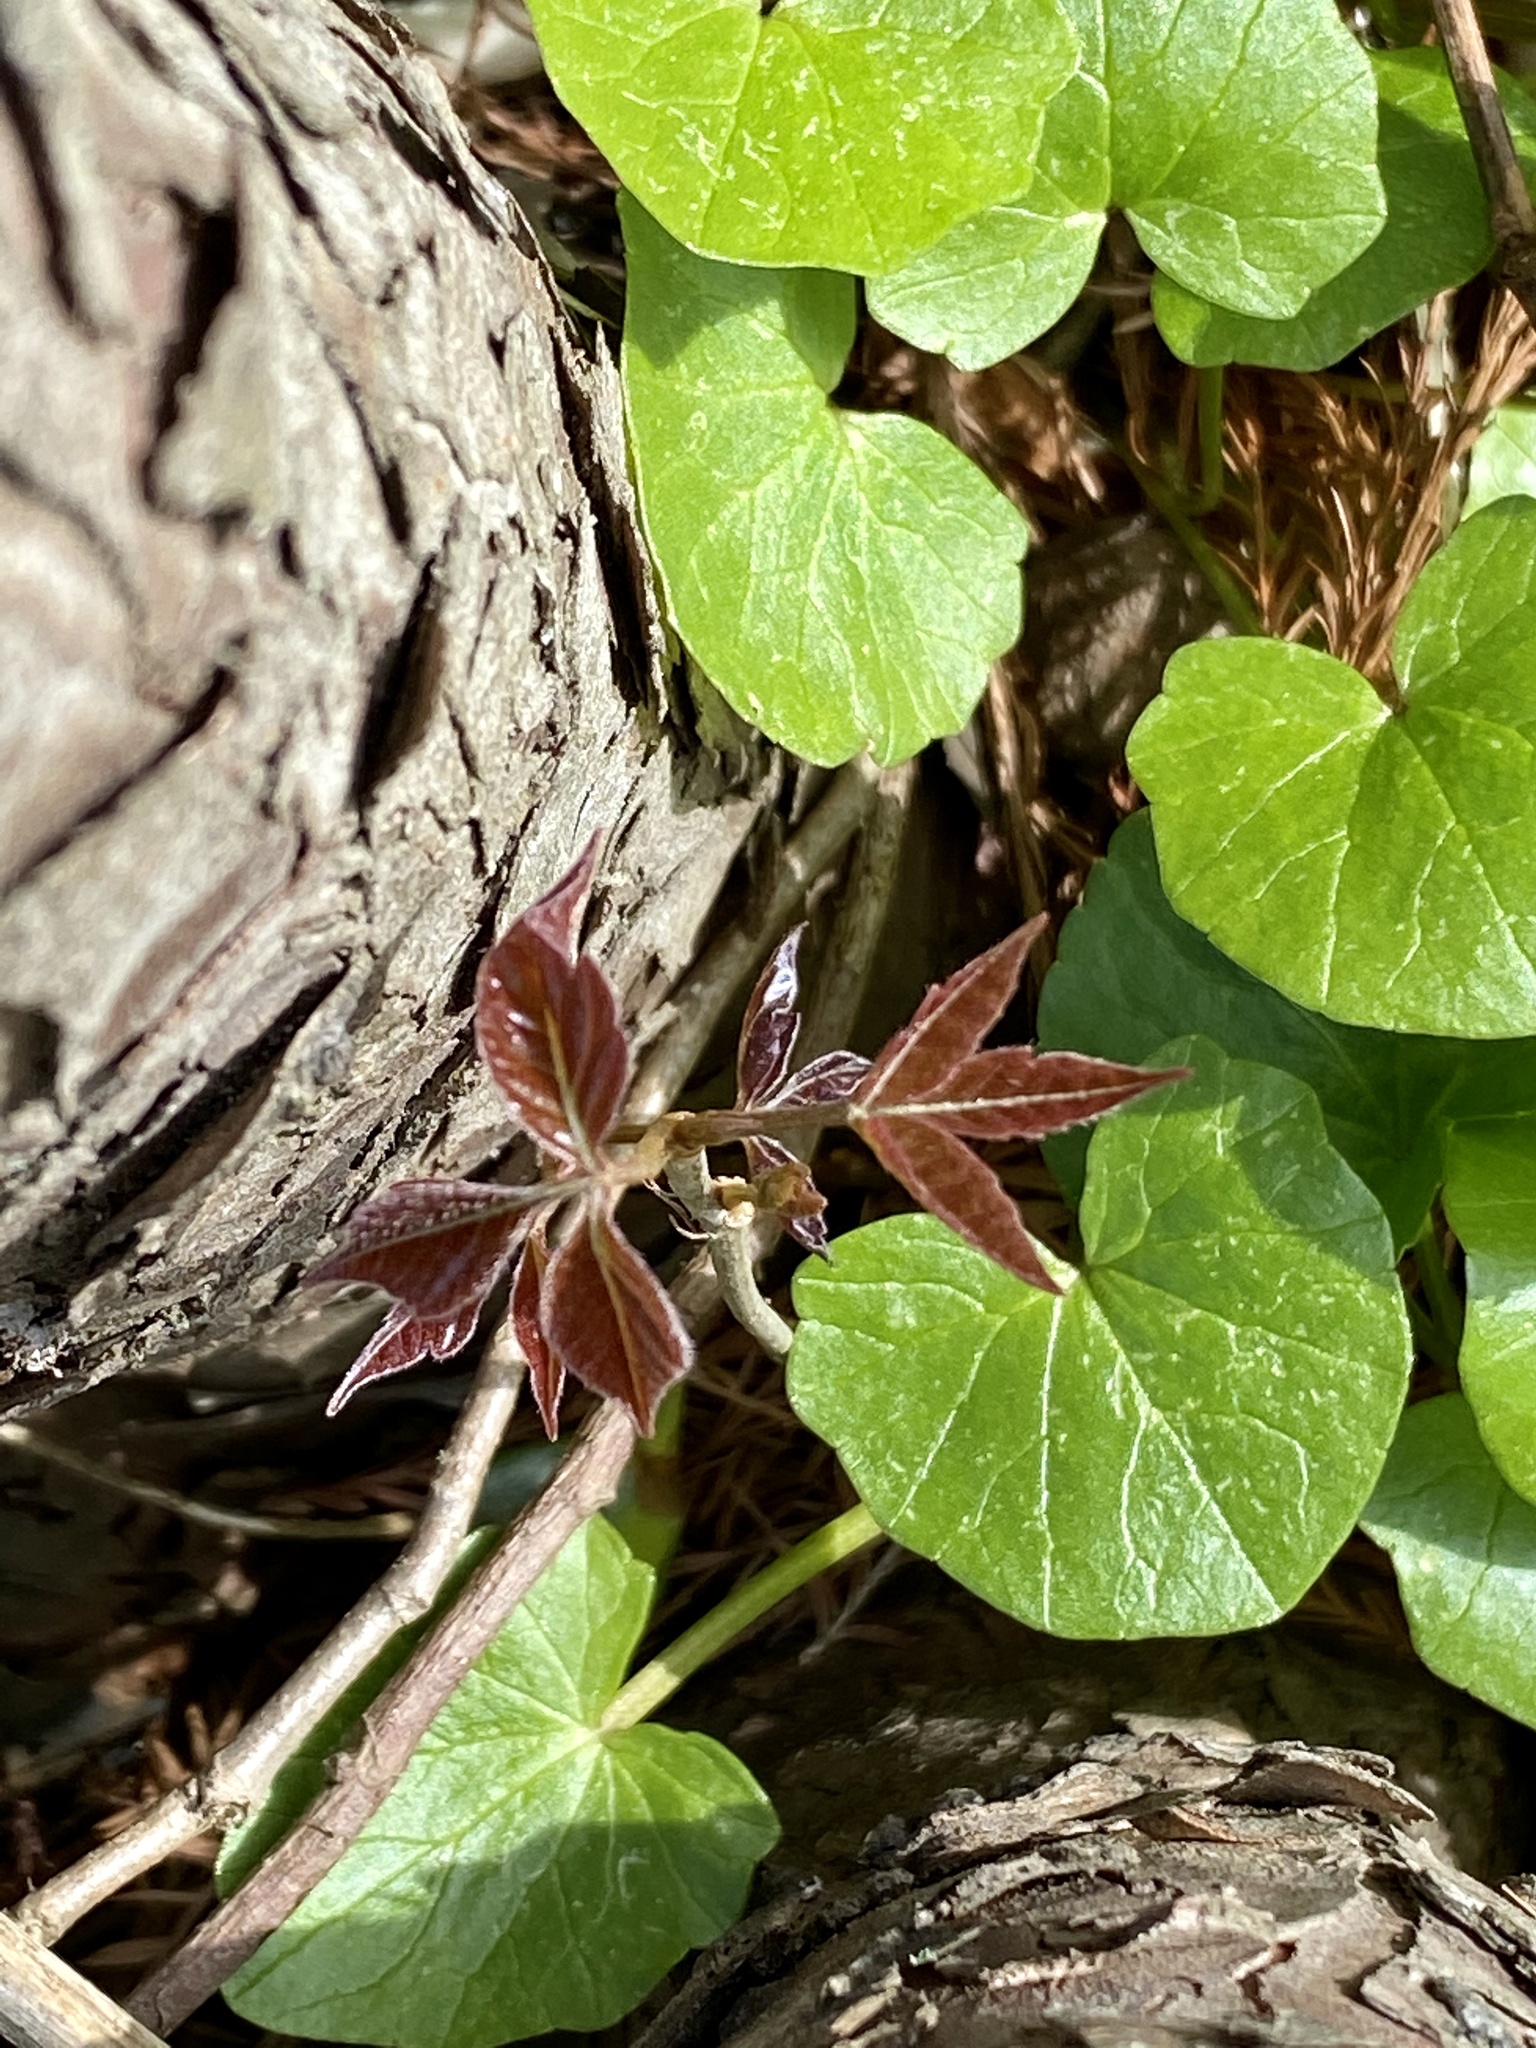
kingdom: Plantae
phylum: Tracheophyta
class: Magnoliopsida
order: Sapindales
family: Anacardiaceae
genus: Toxicodendron
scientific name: Toxicodendron radicans
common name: Poison ivy
